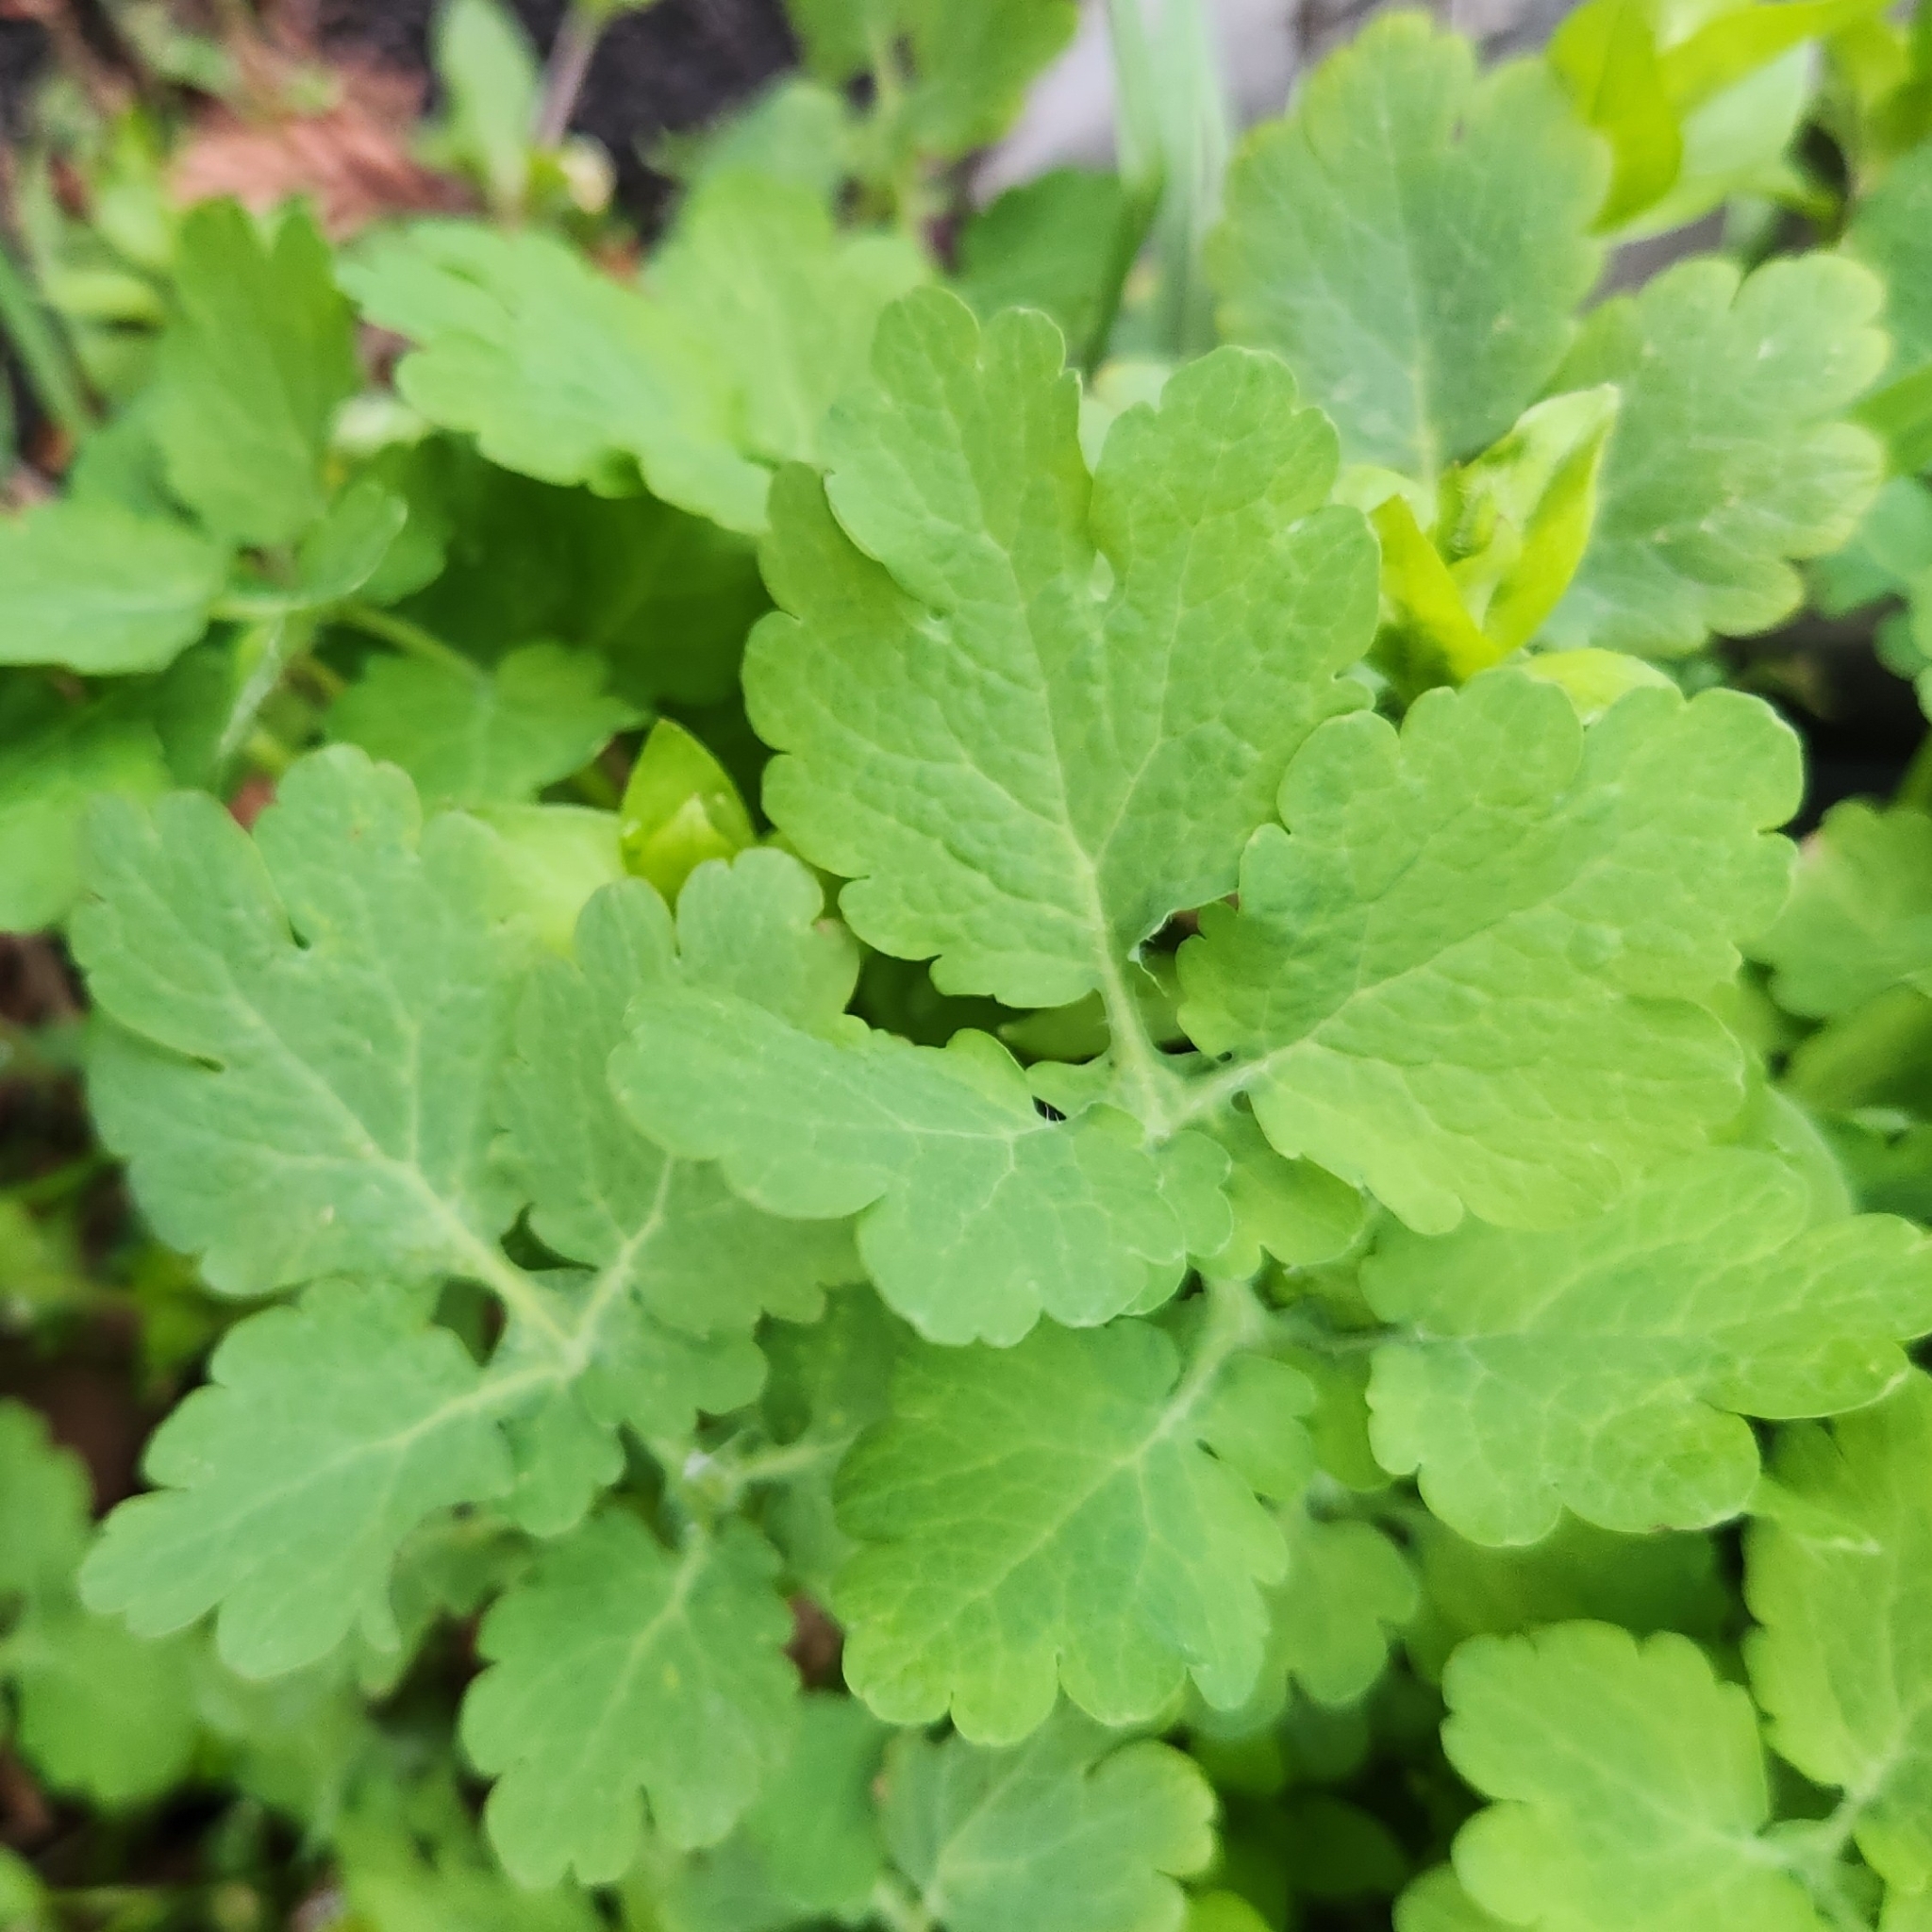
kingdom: Plantae
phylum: Tracheophyta
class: Magnoliopsida
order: Ranunculales
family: Papaveraceae
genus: Chelidonium
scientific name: Chelidonium majus
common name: Greater celandine
